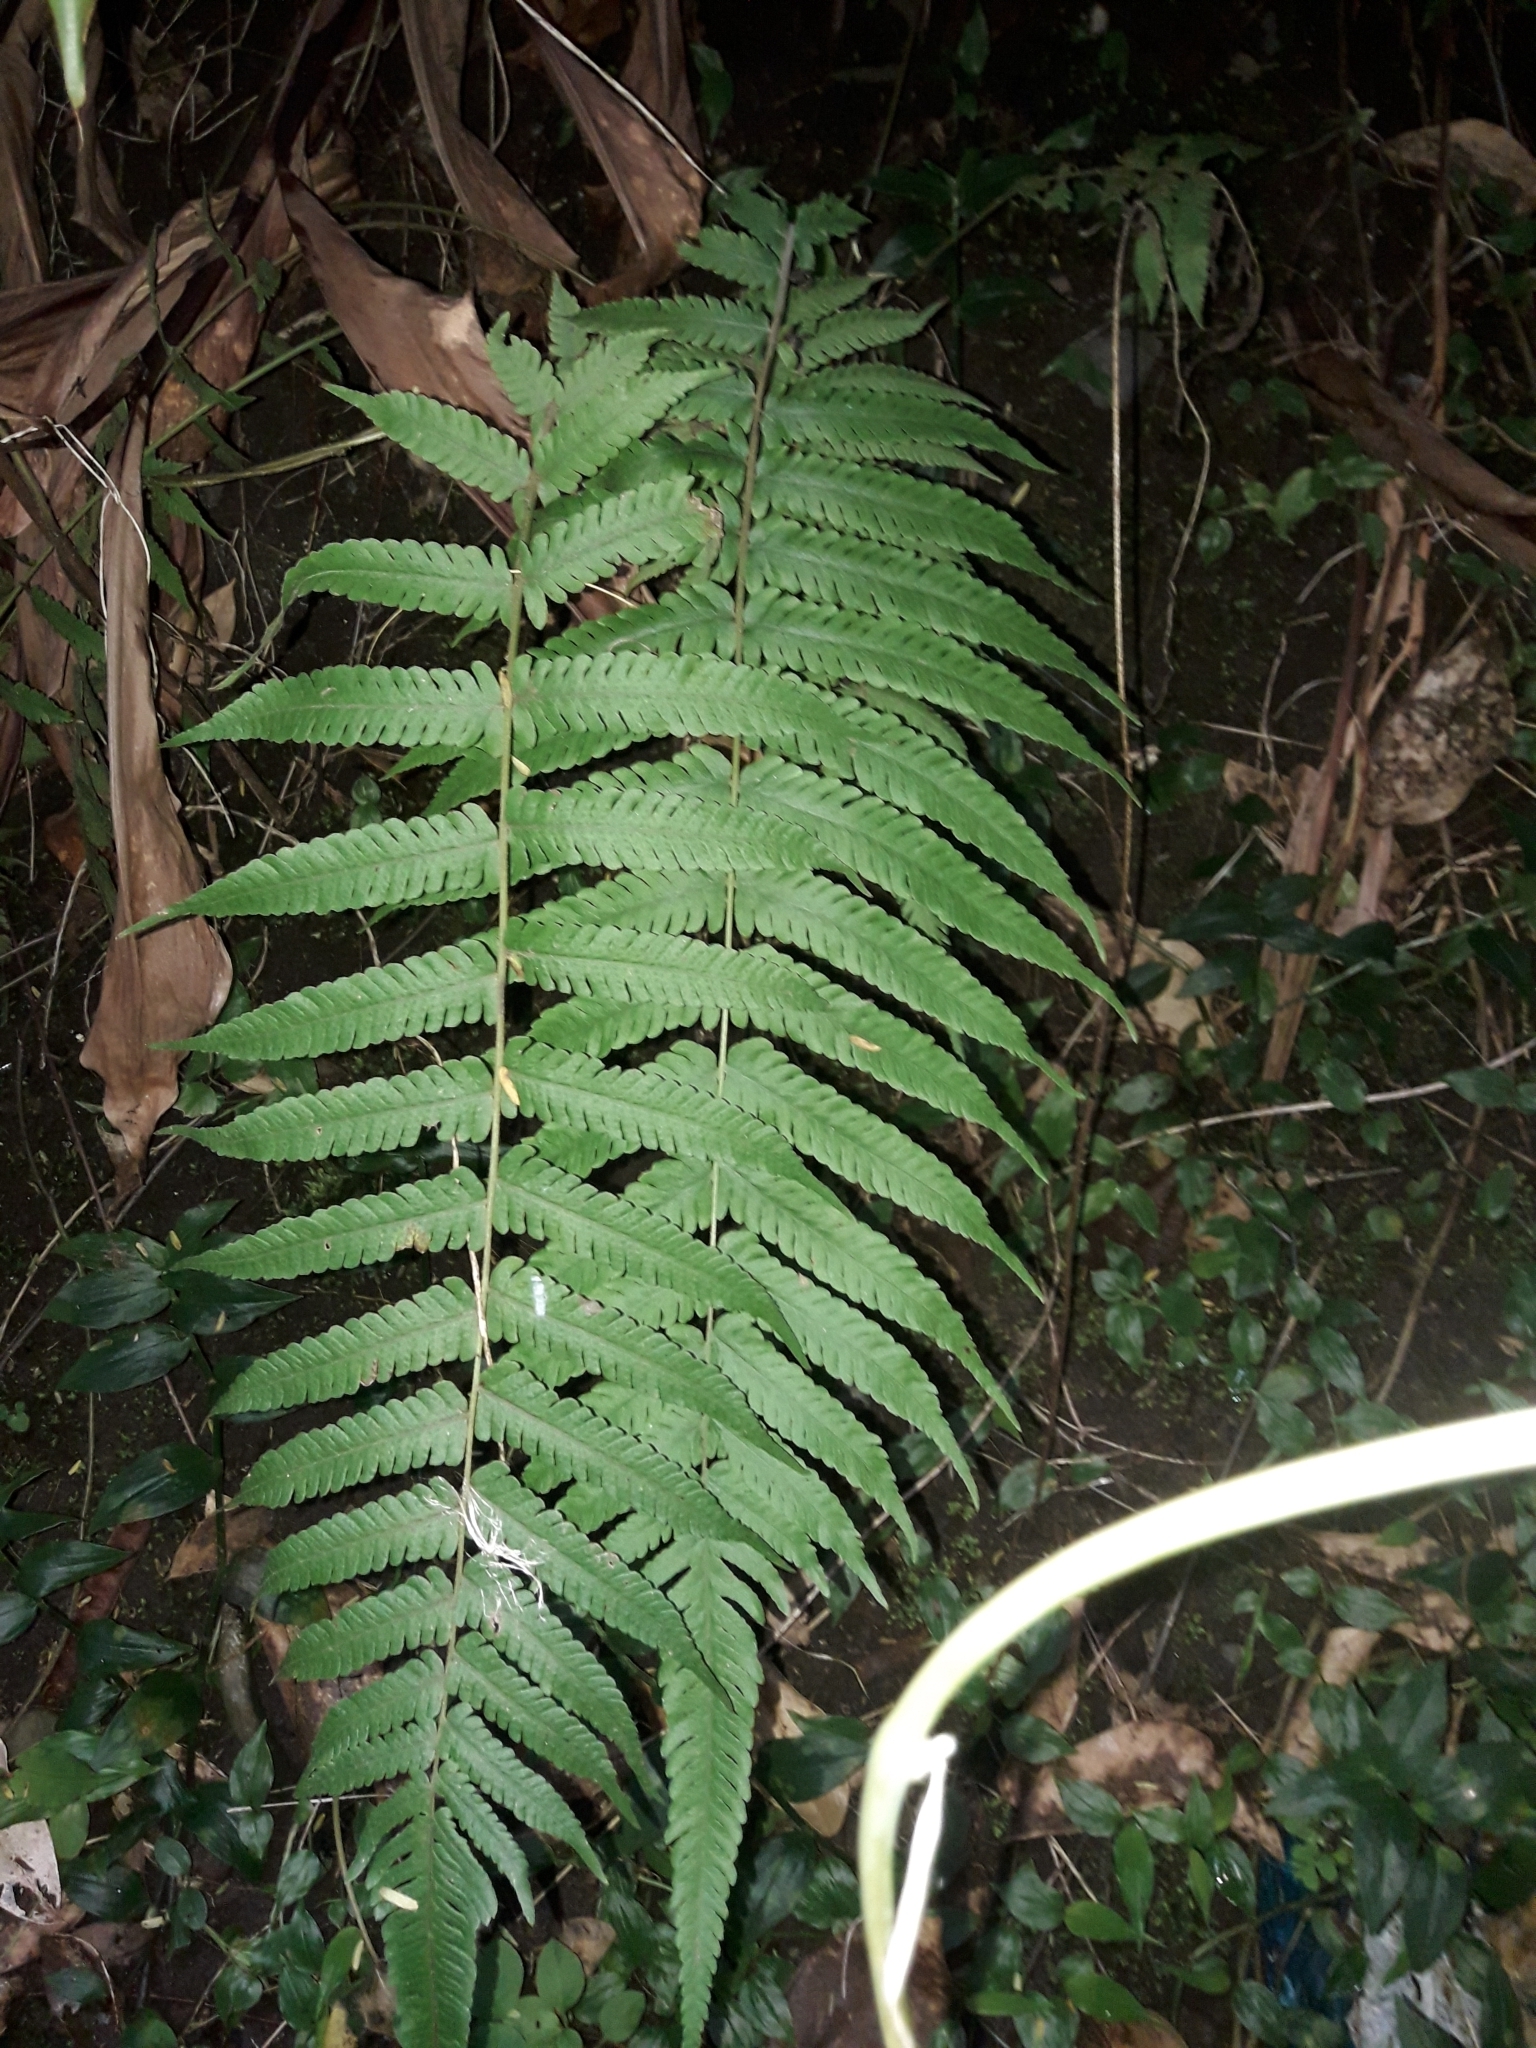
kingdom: Plantae
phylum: Tracheophyta
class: Polypodiopsida
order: Polypodiales
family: Thelypteridaceae
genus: Christella
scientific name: Christella dentata
